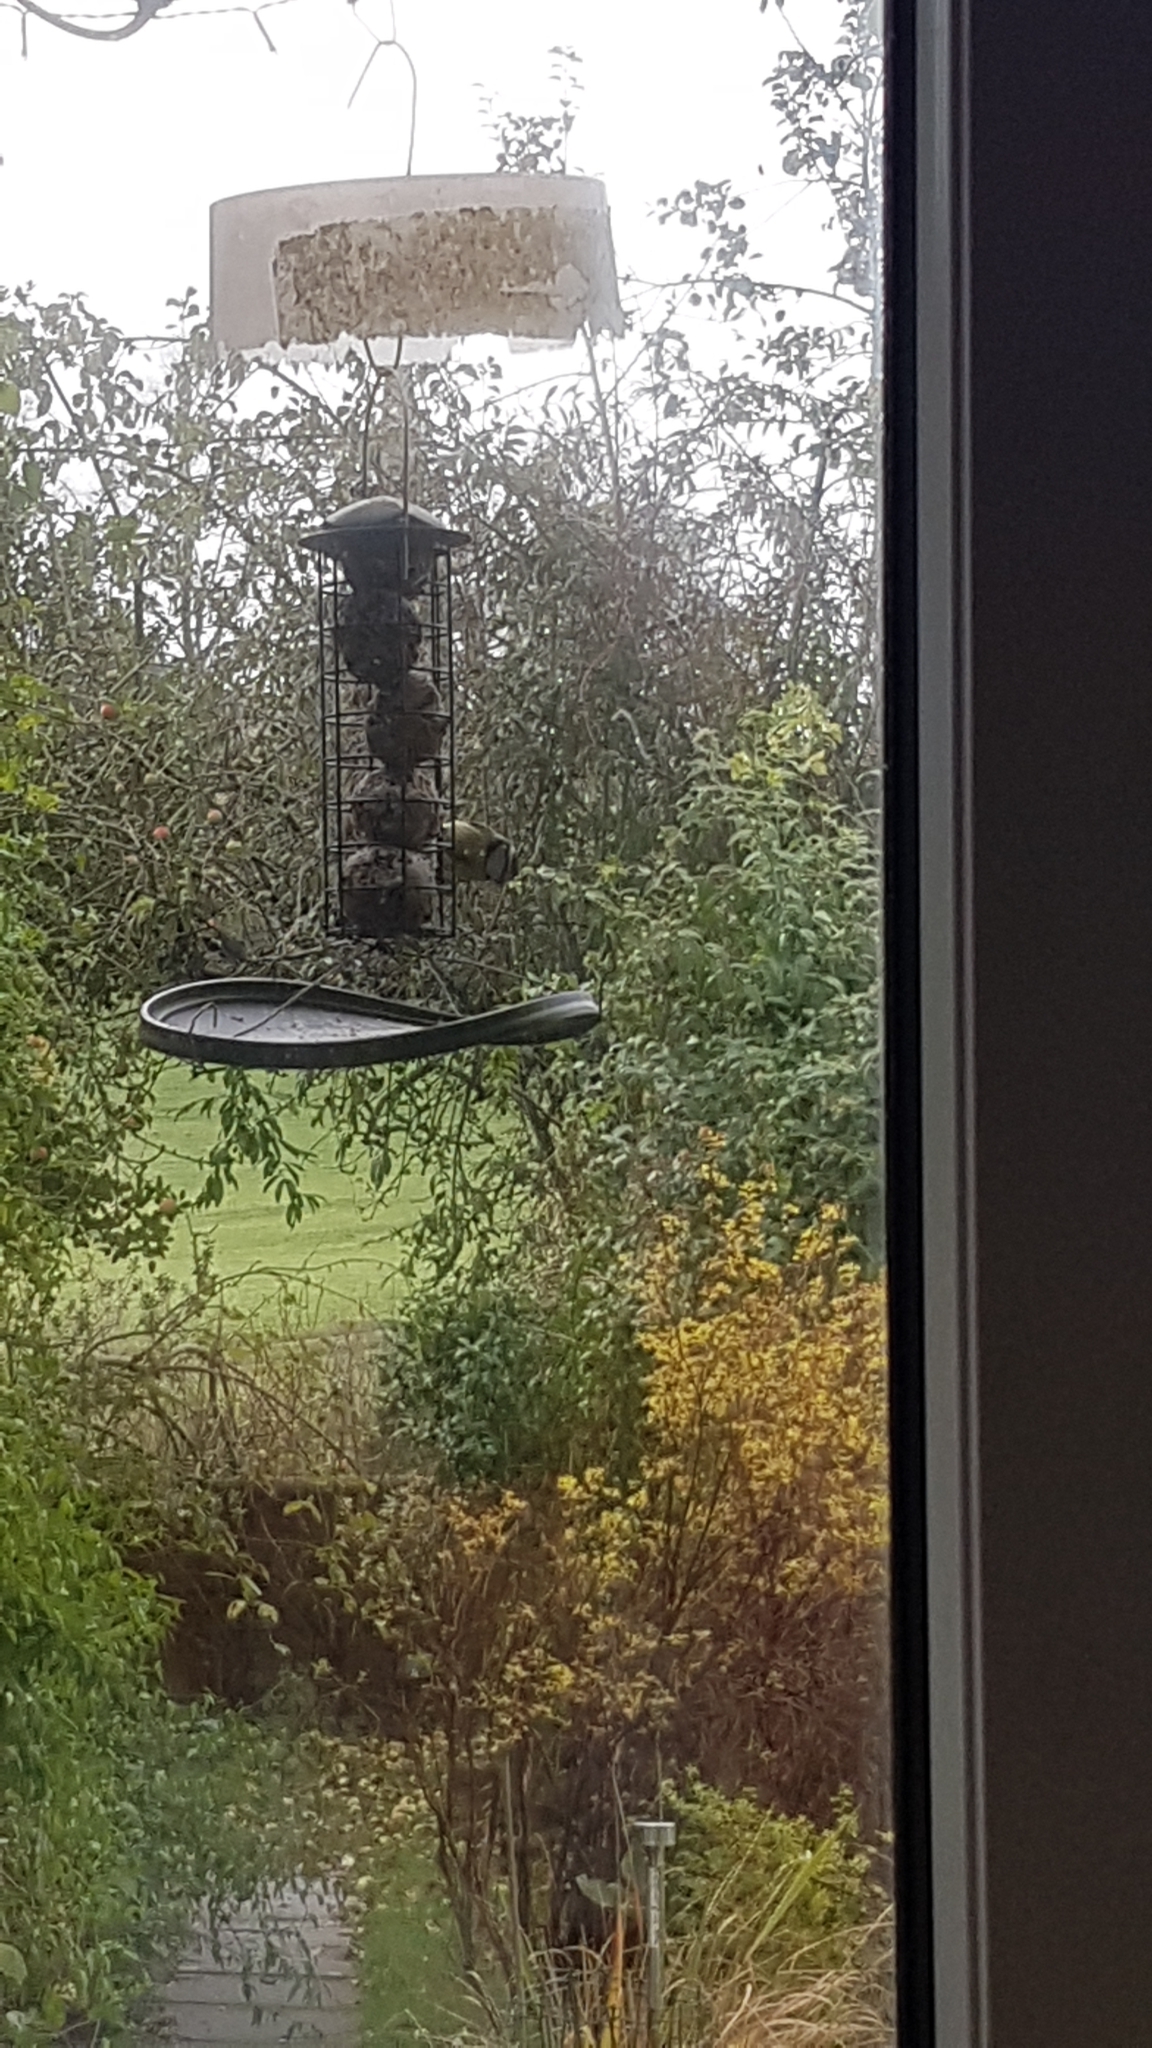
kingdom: Animalia
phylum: Chordata
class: Aves
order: Passeriformes
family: Paridae
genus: Cyanistes
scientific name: Cyanistes caeruleus
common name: Eurasian blue tit
